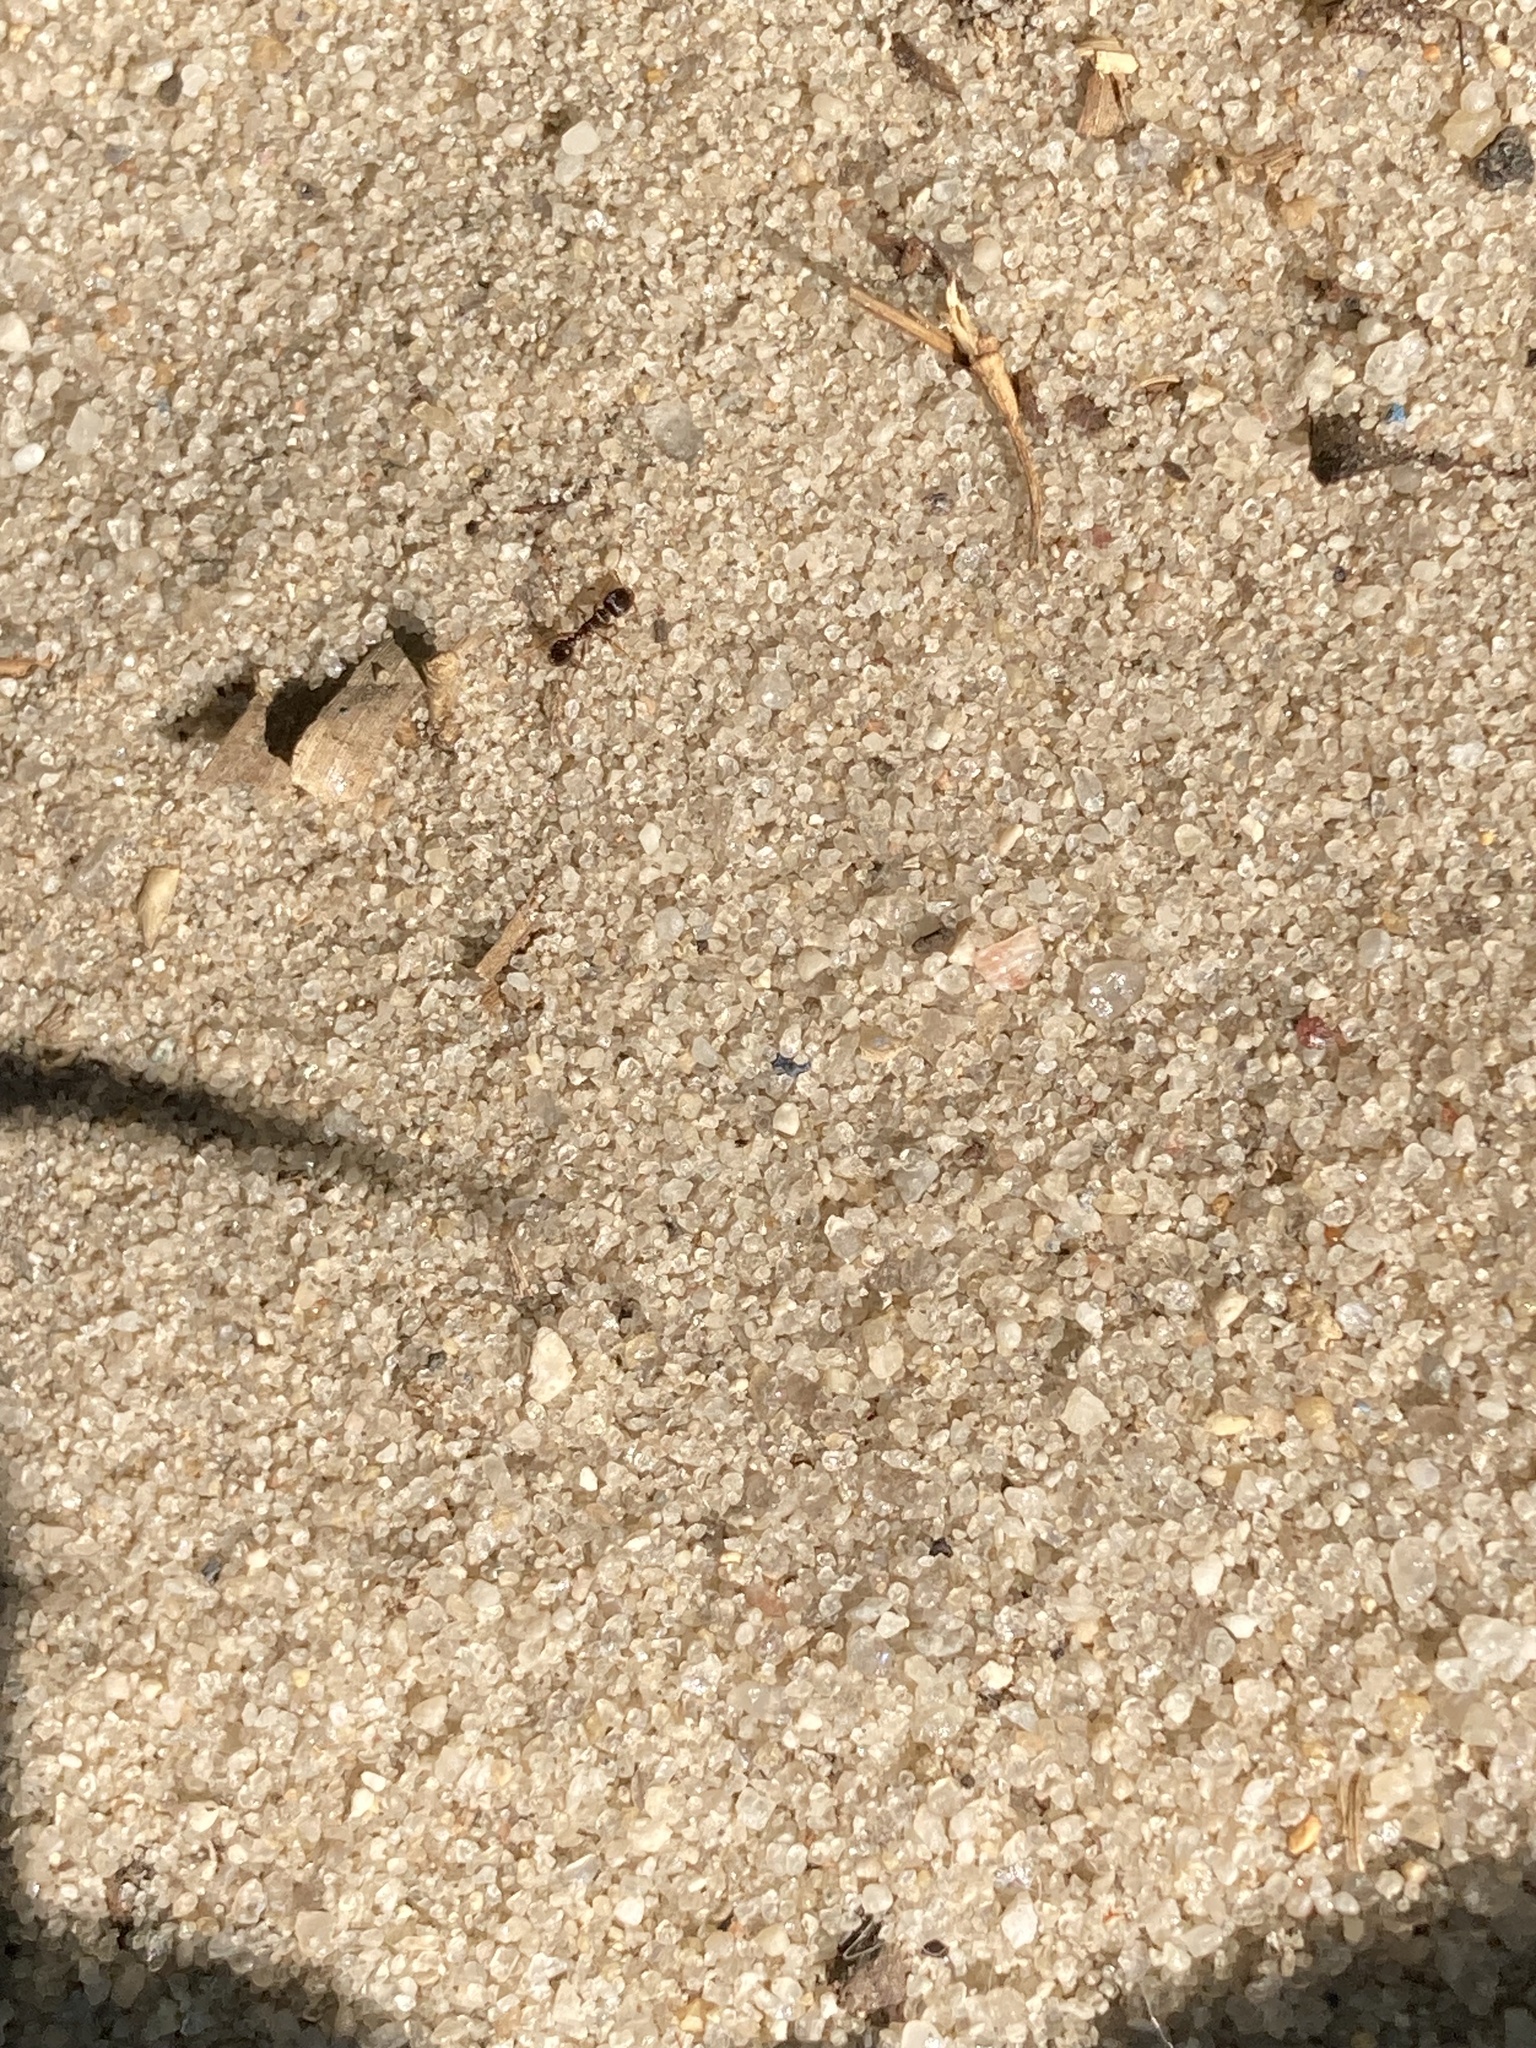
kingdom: Animalia
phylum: Arthropoda
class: Insecta
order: Hymenoptera
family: Formicidae
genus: Tetramorium
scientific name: Tetramorium immigrans
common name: Pavement ant
